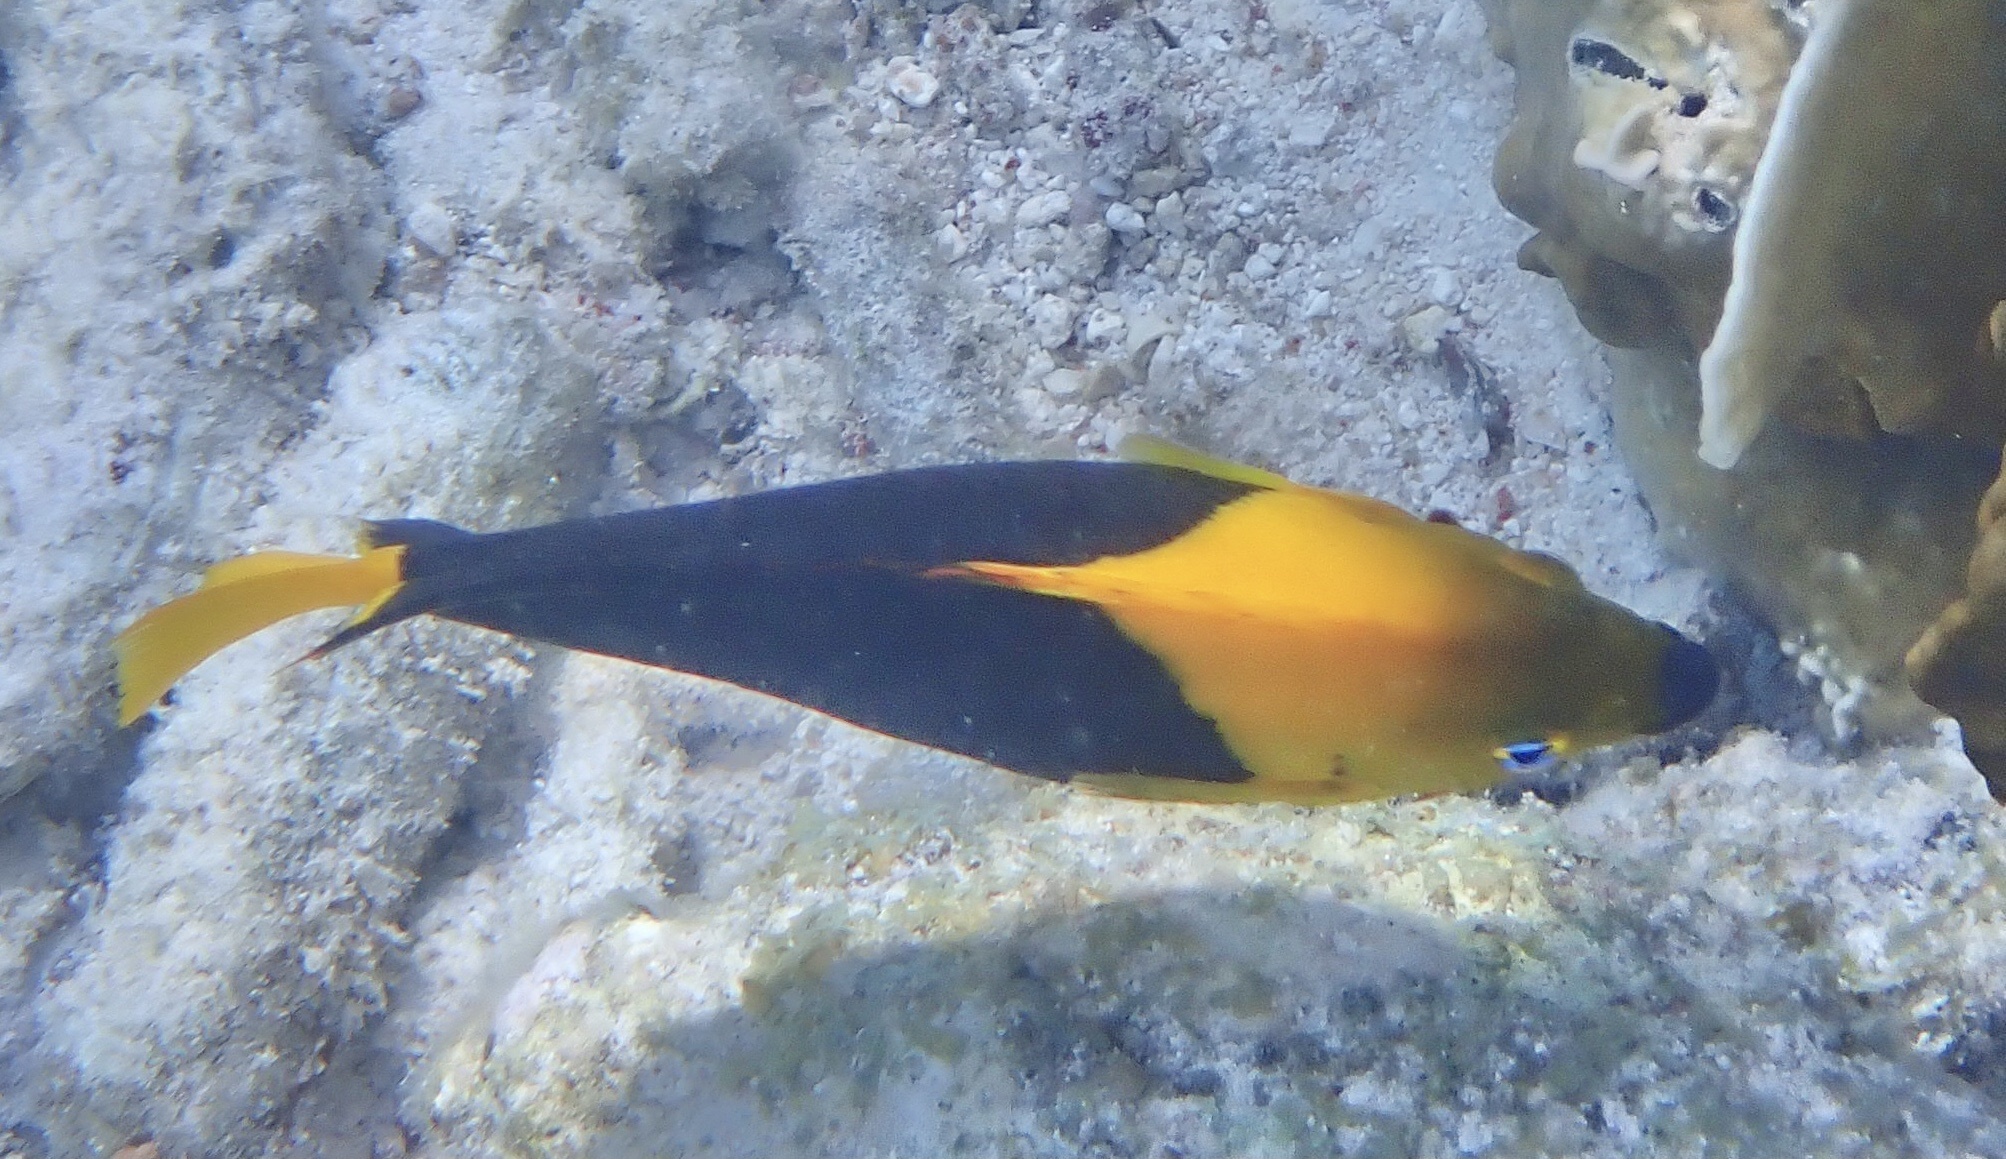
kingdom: Animalia
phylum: Chordata
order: Perciformes
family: Pomacanthidae
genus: Holacanthus
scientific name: Holacanthus tricolor
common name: Rock beauty
